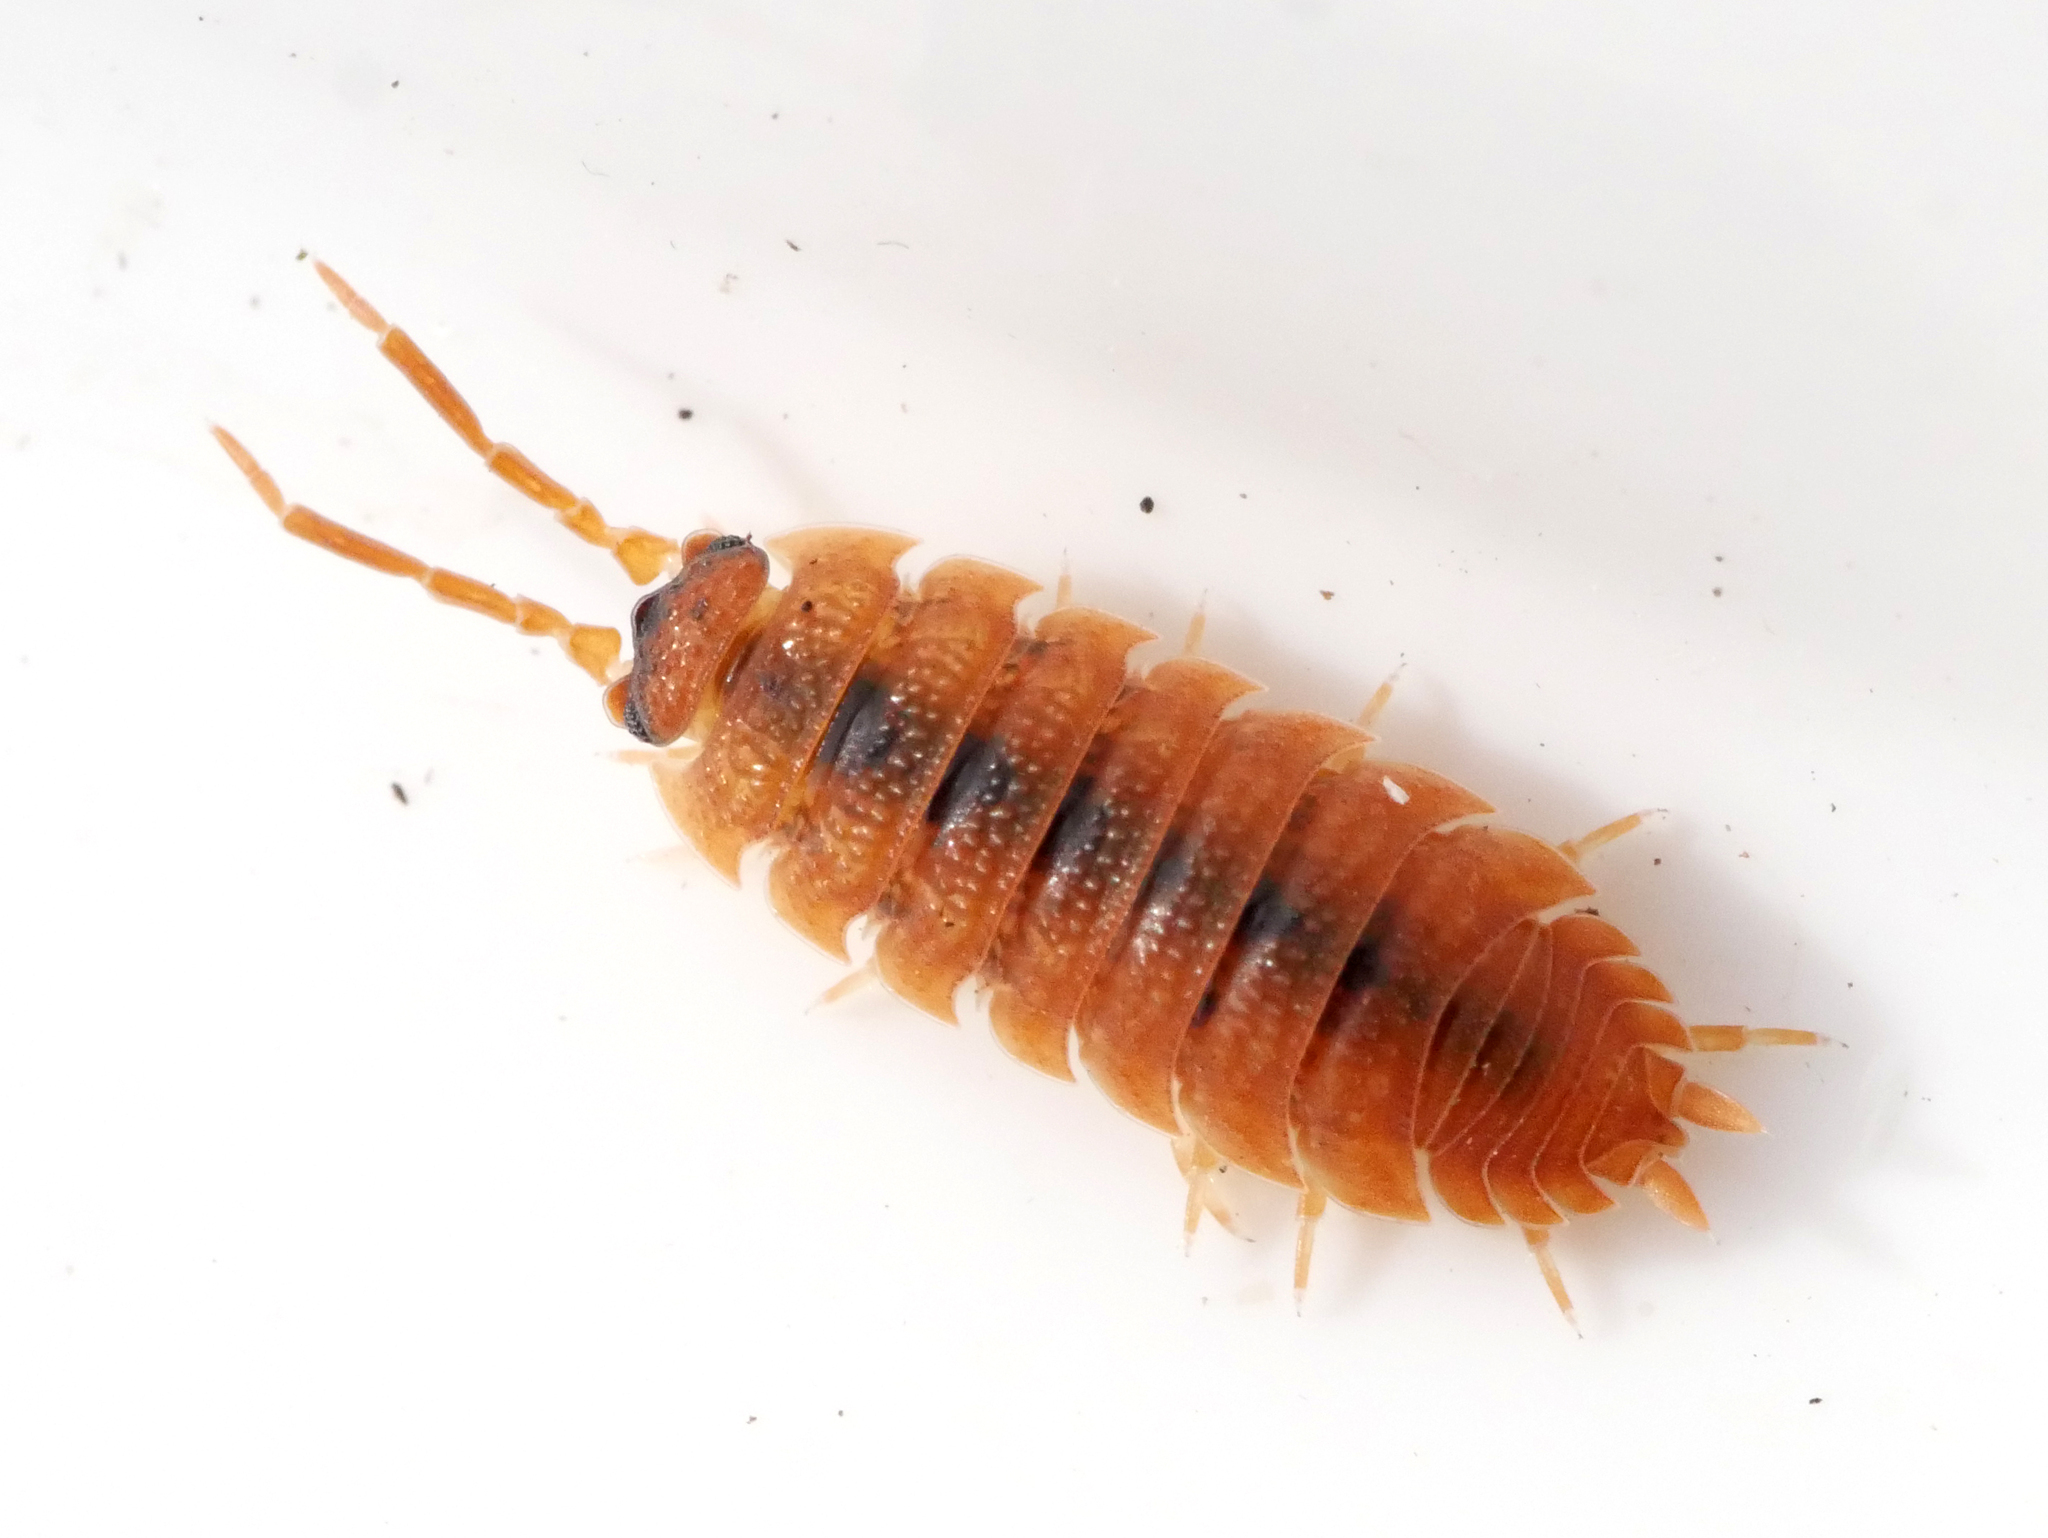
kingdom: Animalia
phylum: Arthropoda
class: Malacostraca
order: Isopoda
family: Porcellionidae
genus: Porcellio
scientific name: Porcellio scaber
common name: Common rough woodlouse
